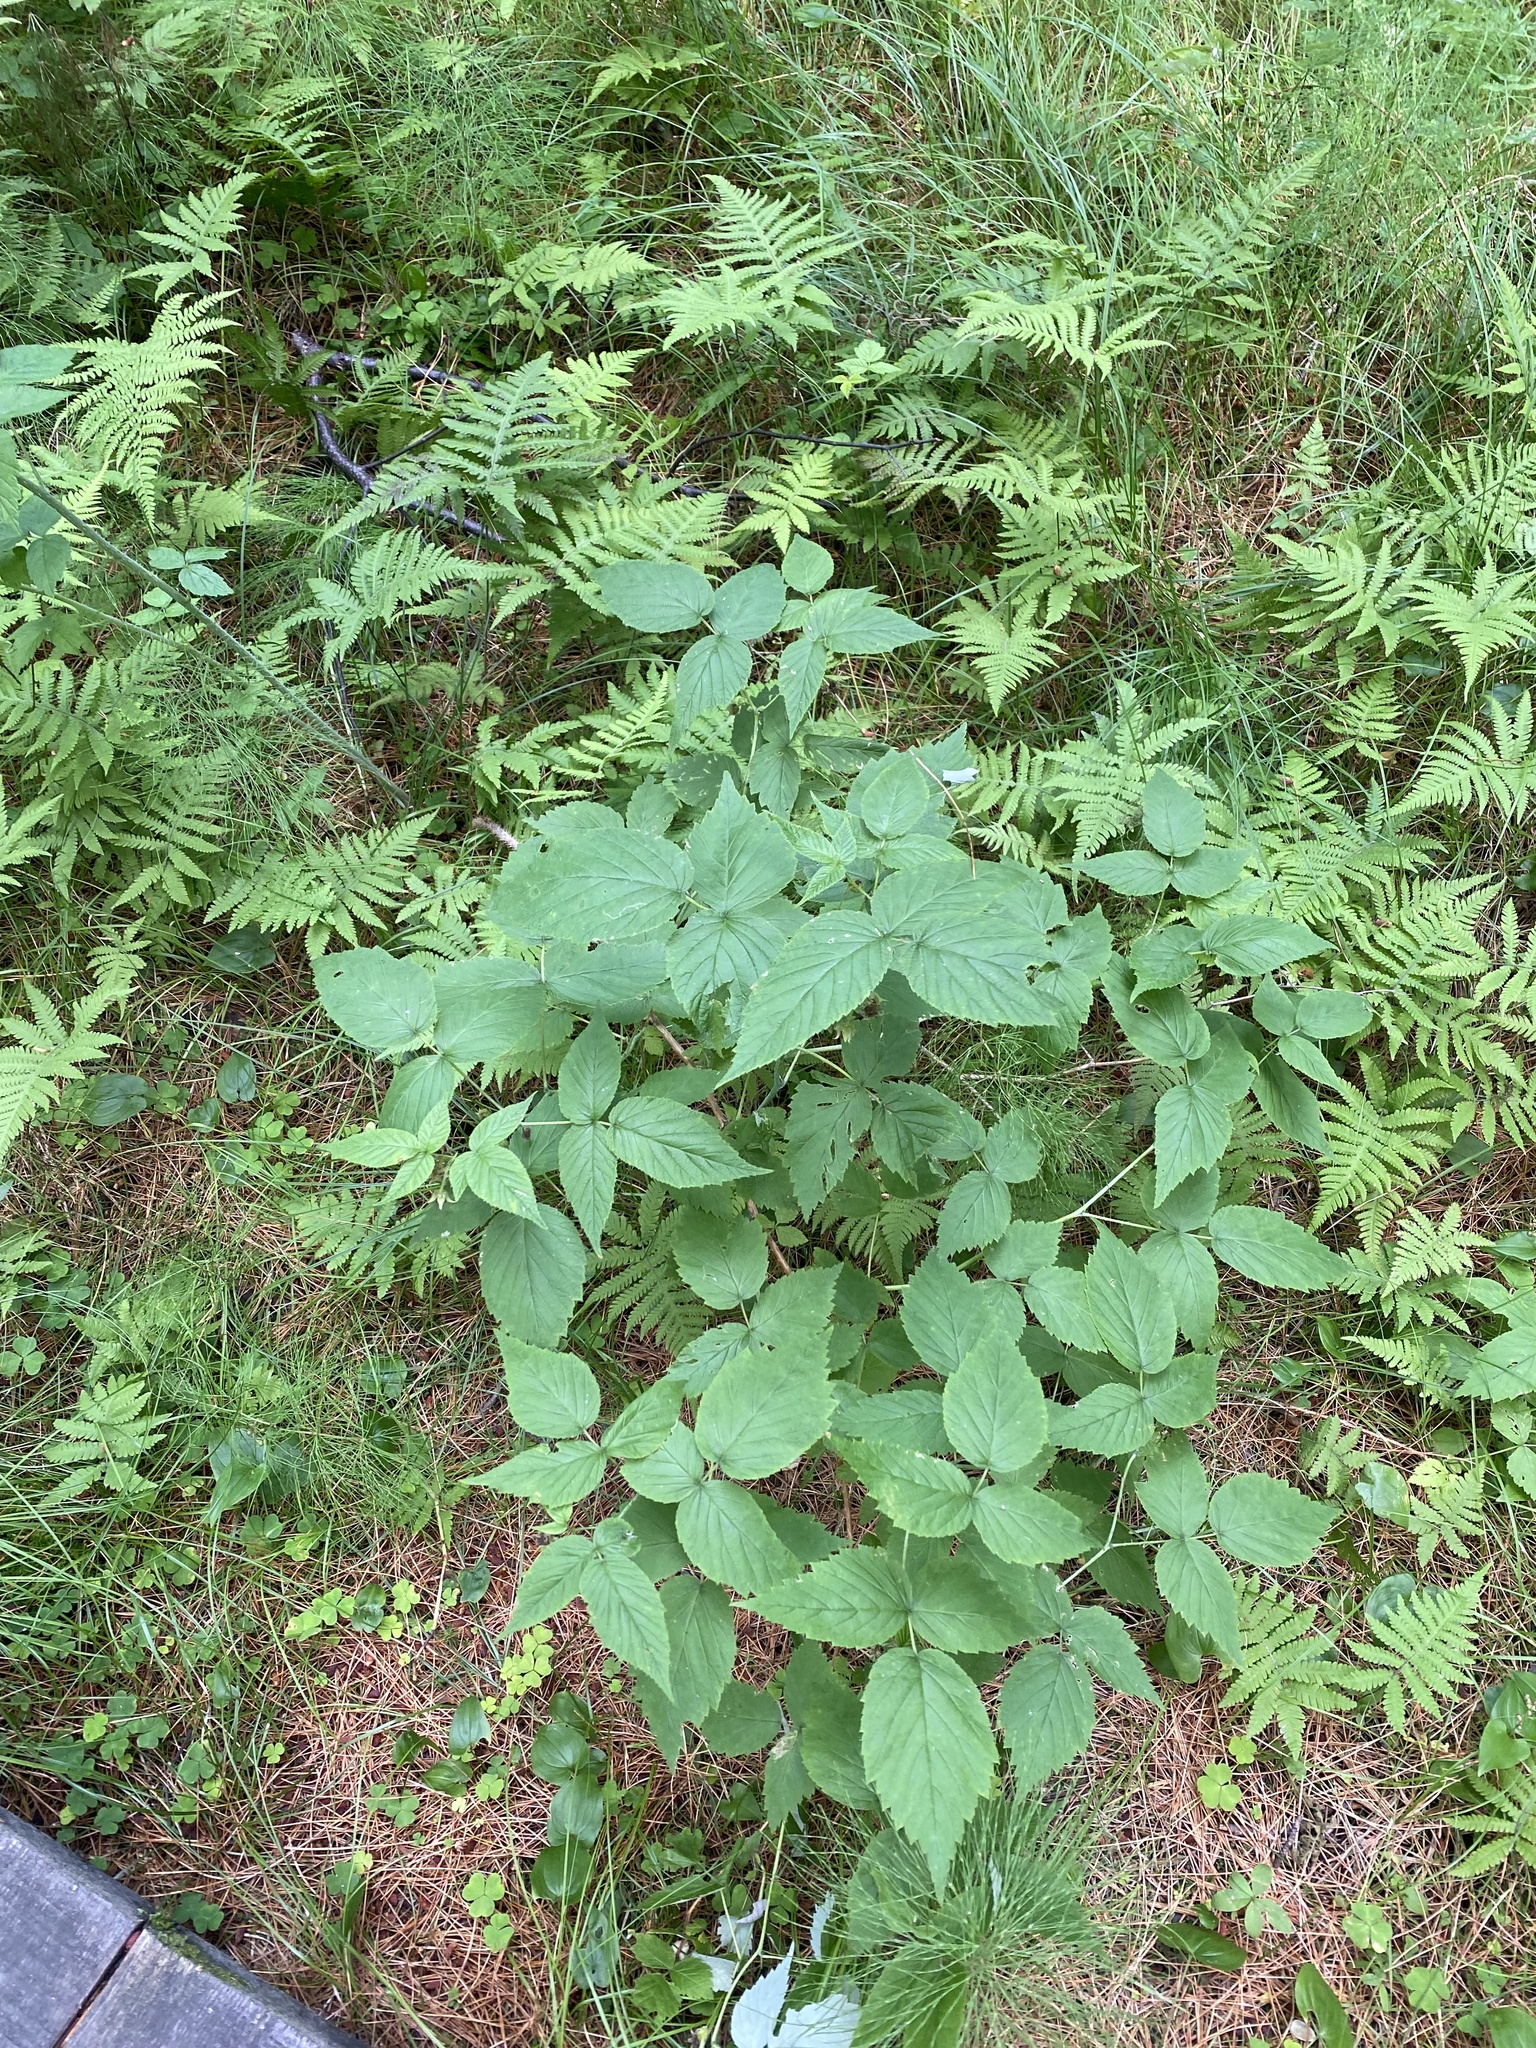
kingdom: Plantae
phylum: Tracheophyta
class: Magnoliopsida
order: Rosales
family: Rosaceae
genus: Rubus
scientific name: Rubus sachalinensis
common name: Red raspberry
